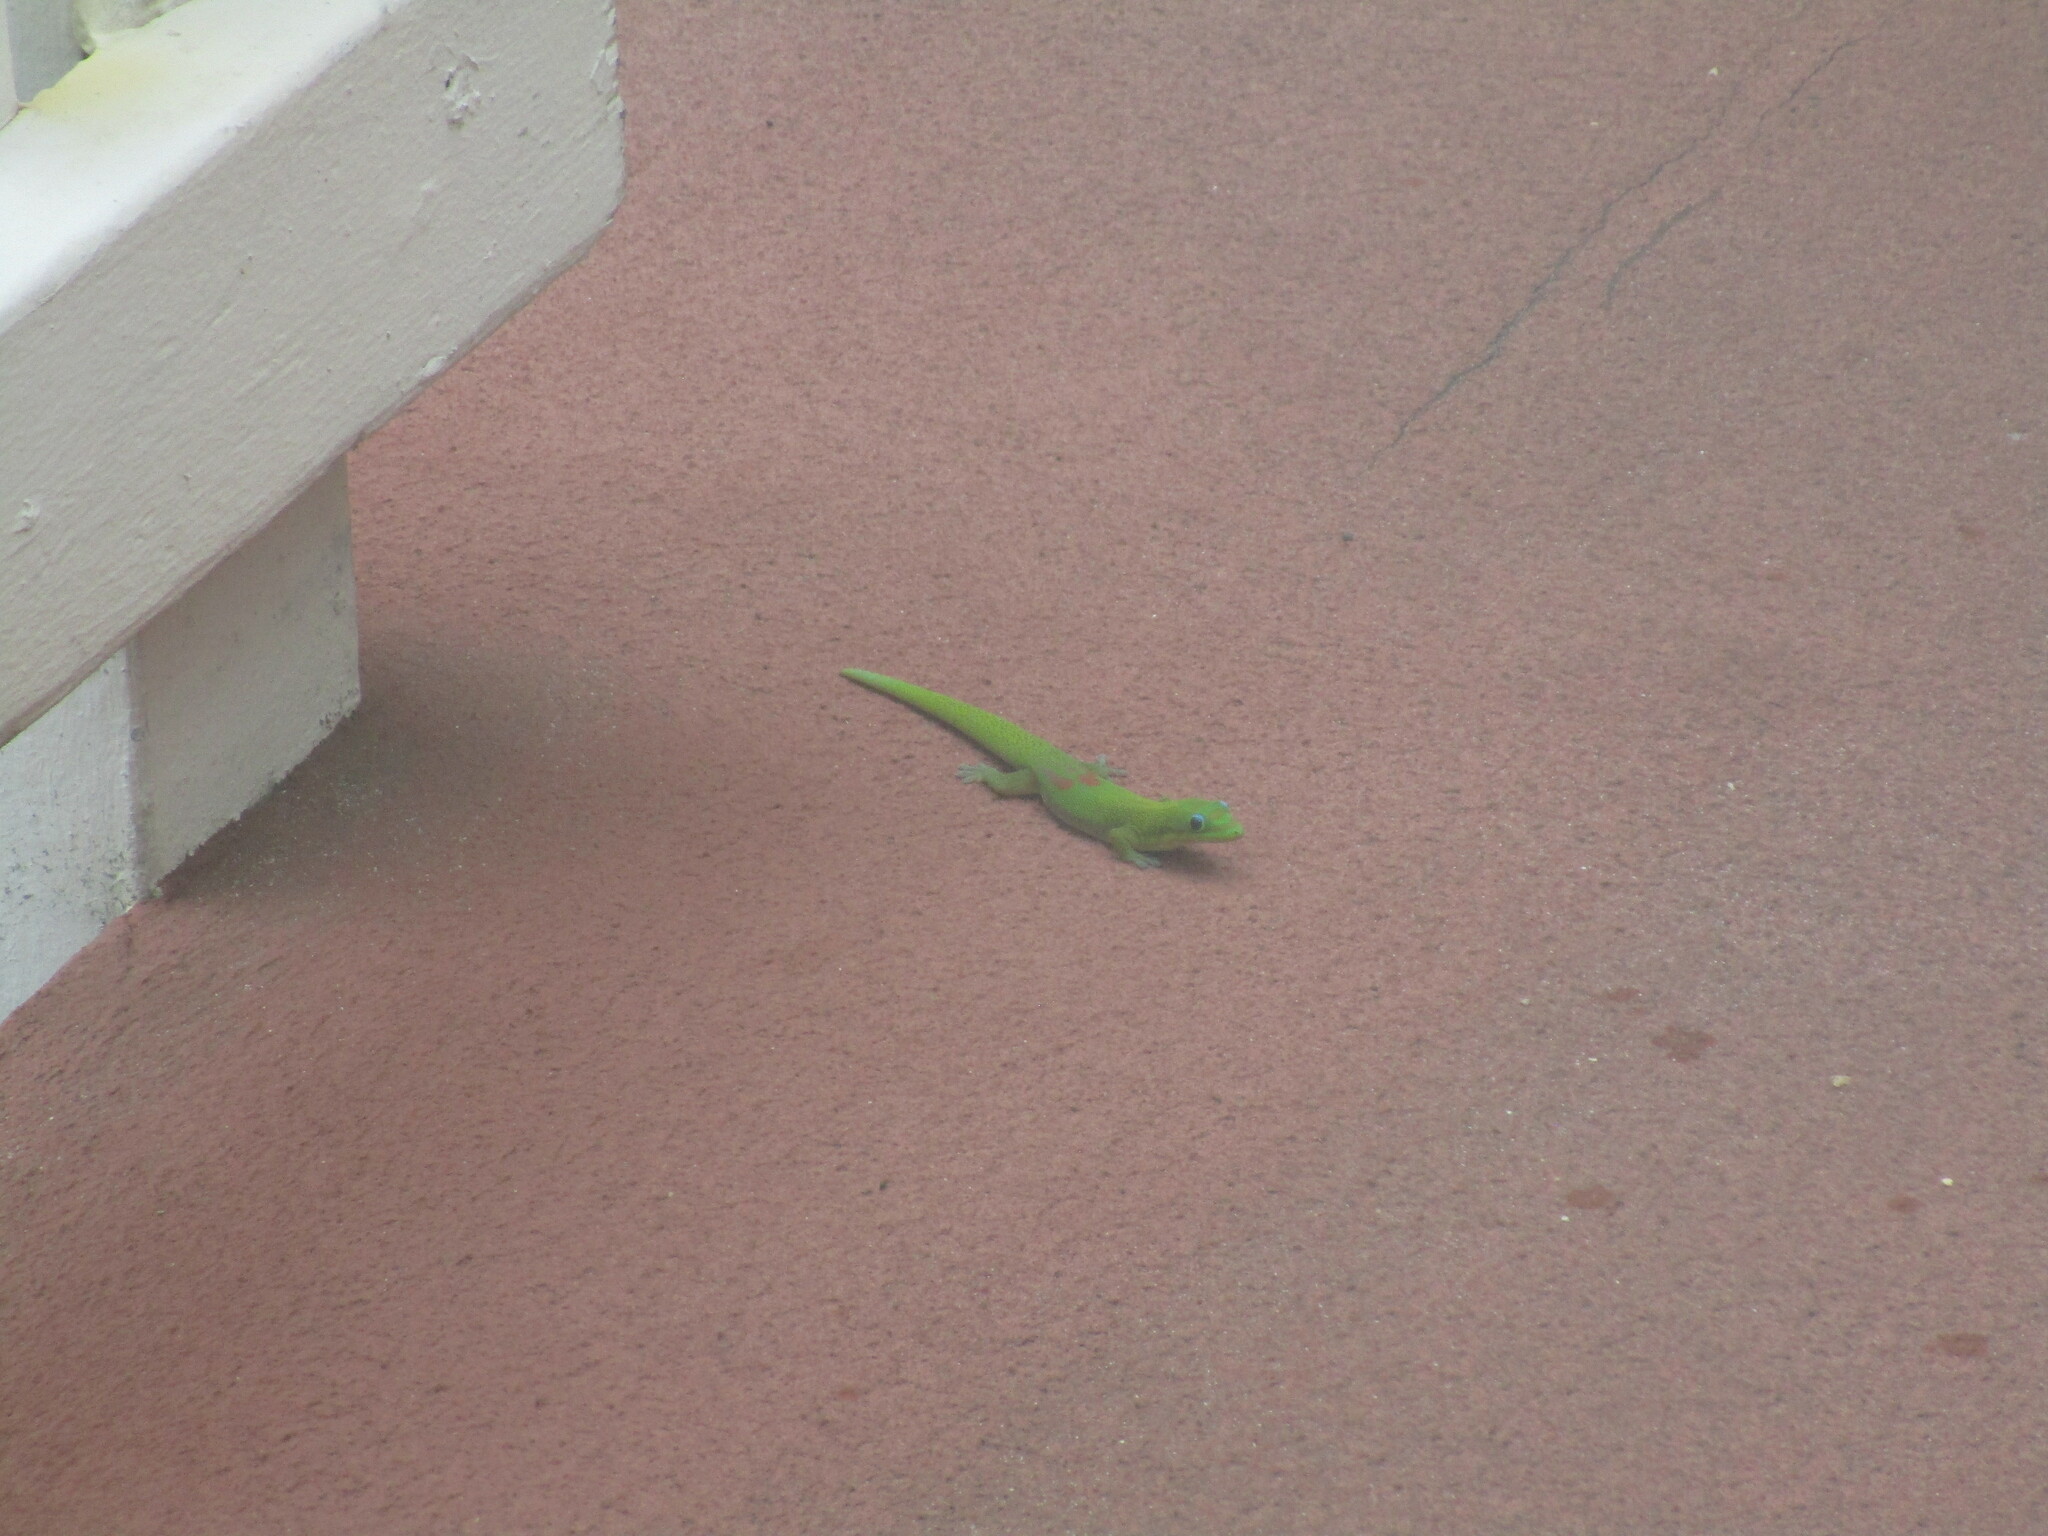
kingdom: Animalia
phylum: Chordata
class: Squamata
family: Gekkonidae
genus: Phelsuma
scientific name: Phelsuma laticauda
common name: Gold dust day gecko
